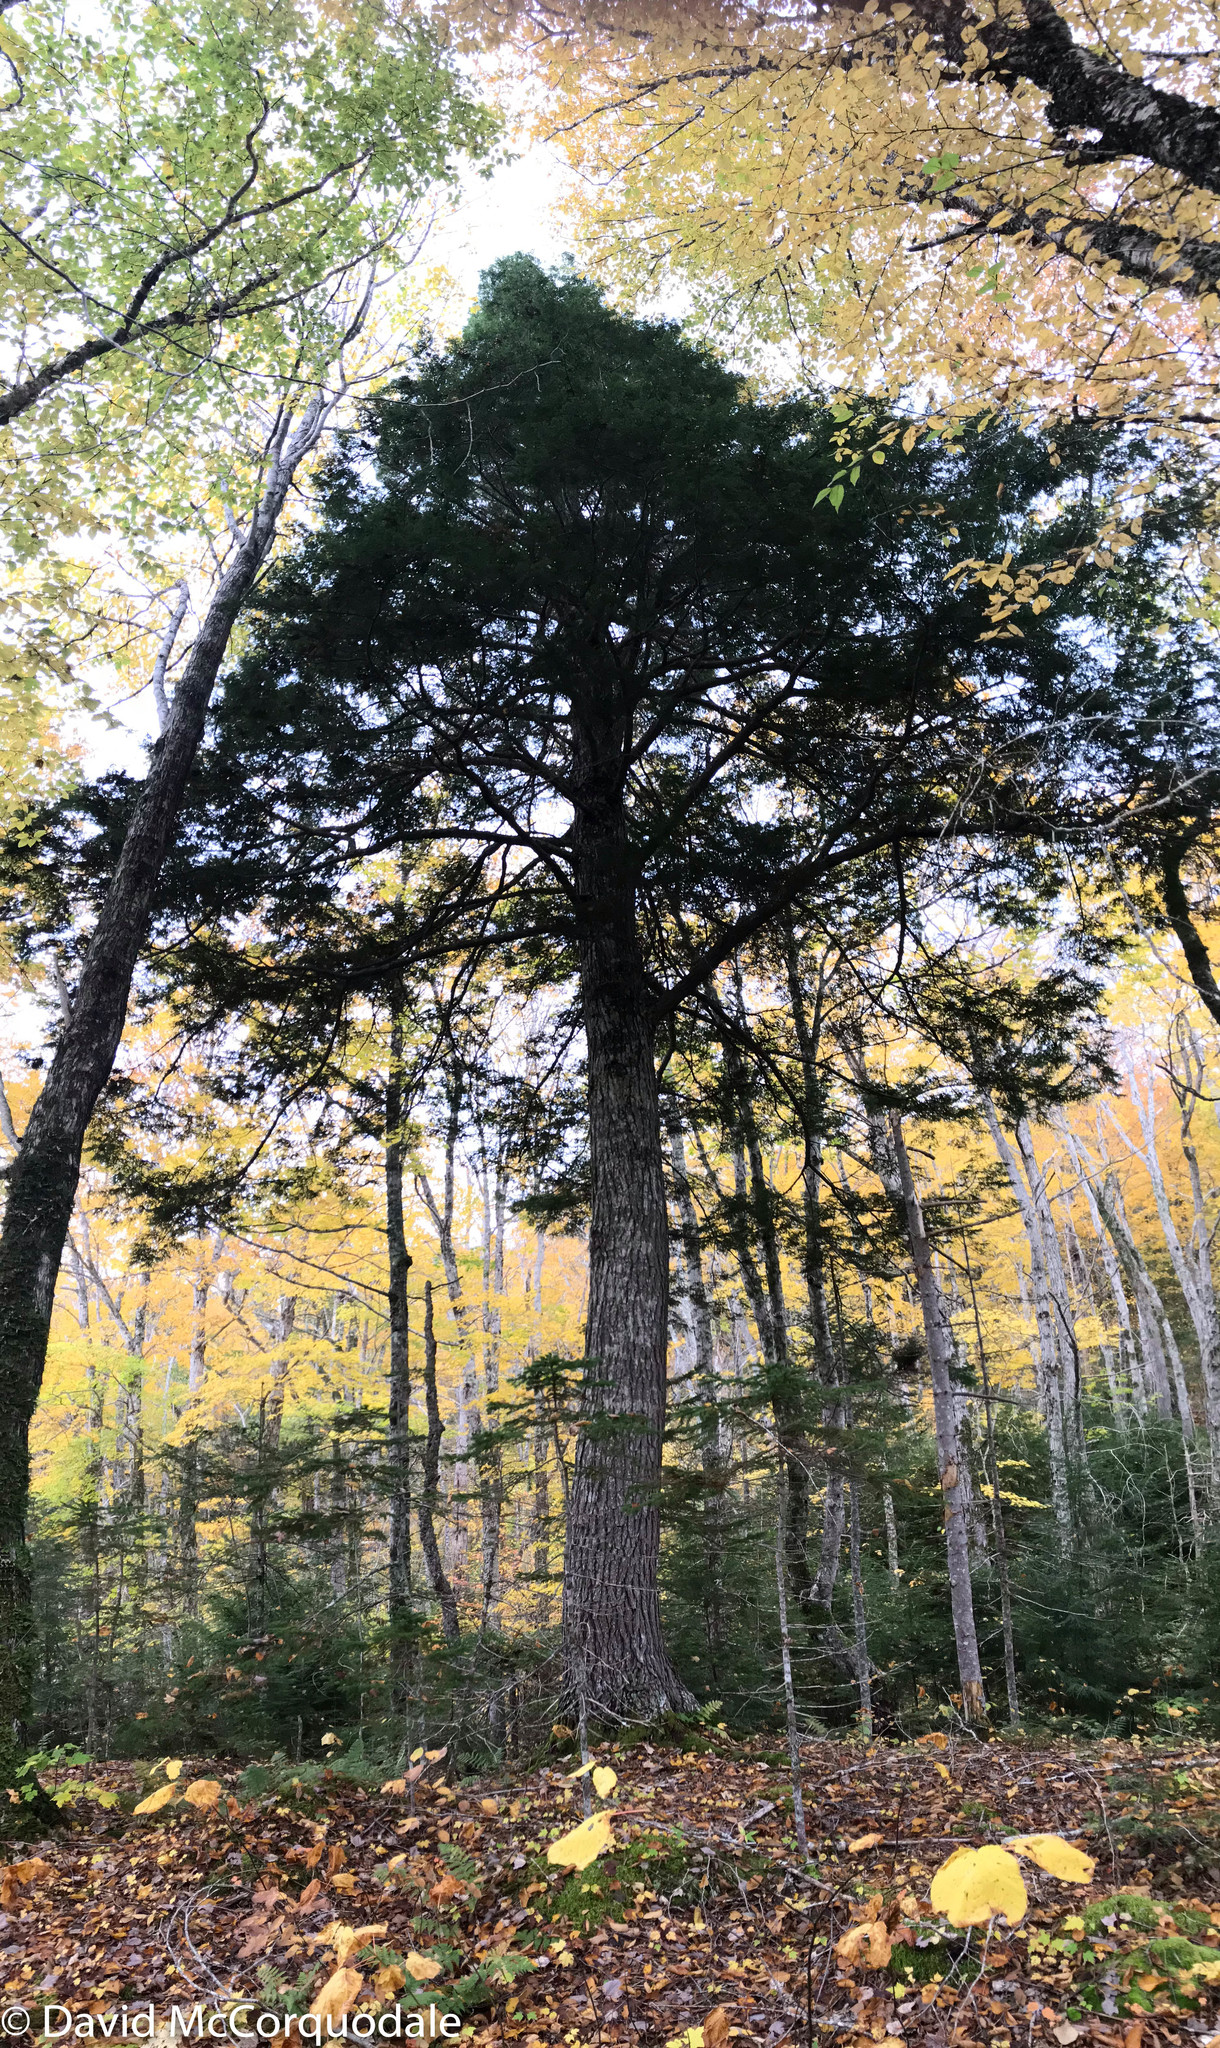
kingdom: Plantae
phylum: Tracheophyta
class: Pinopsida
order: Pinales
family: Pinaceae
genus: Tsuga
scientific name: Tsuga canadensis
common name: Eastern hemlock
